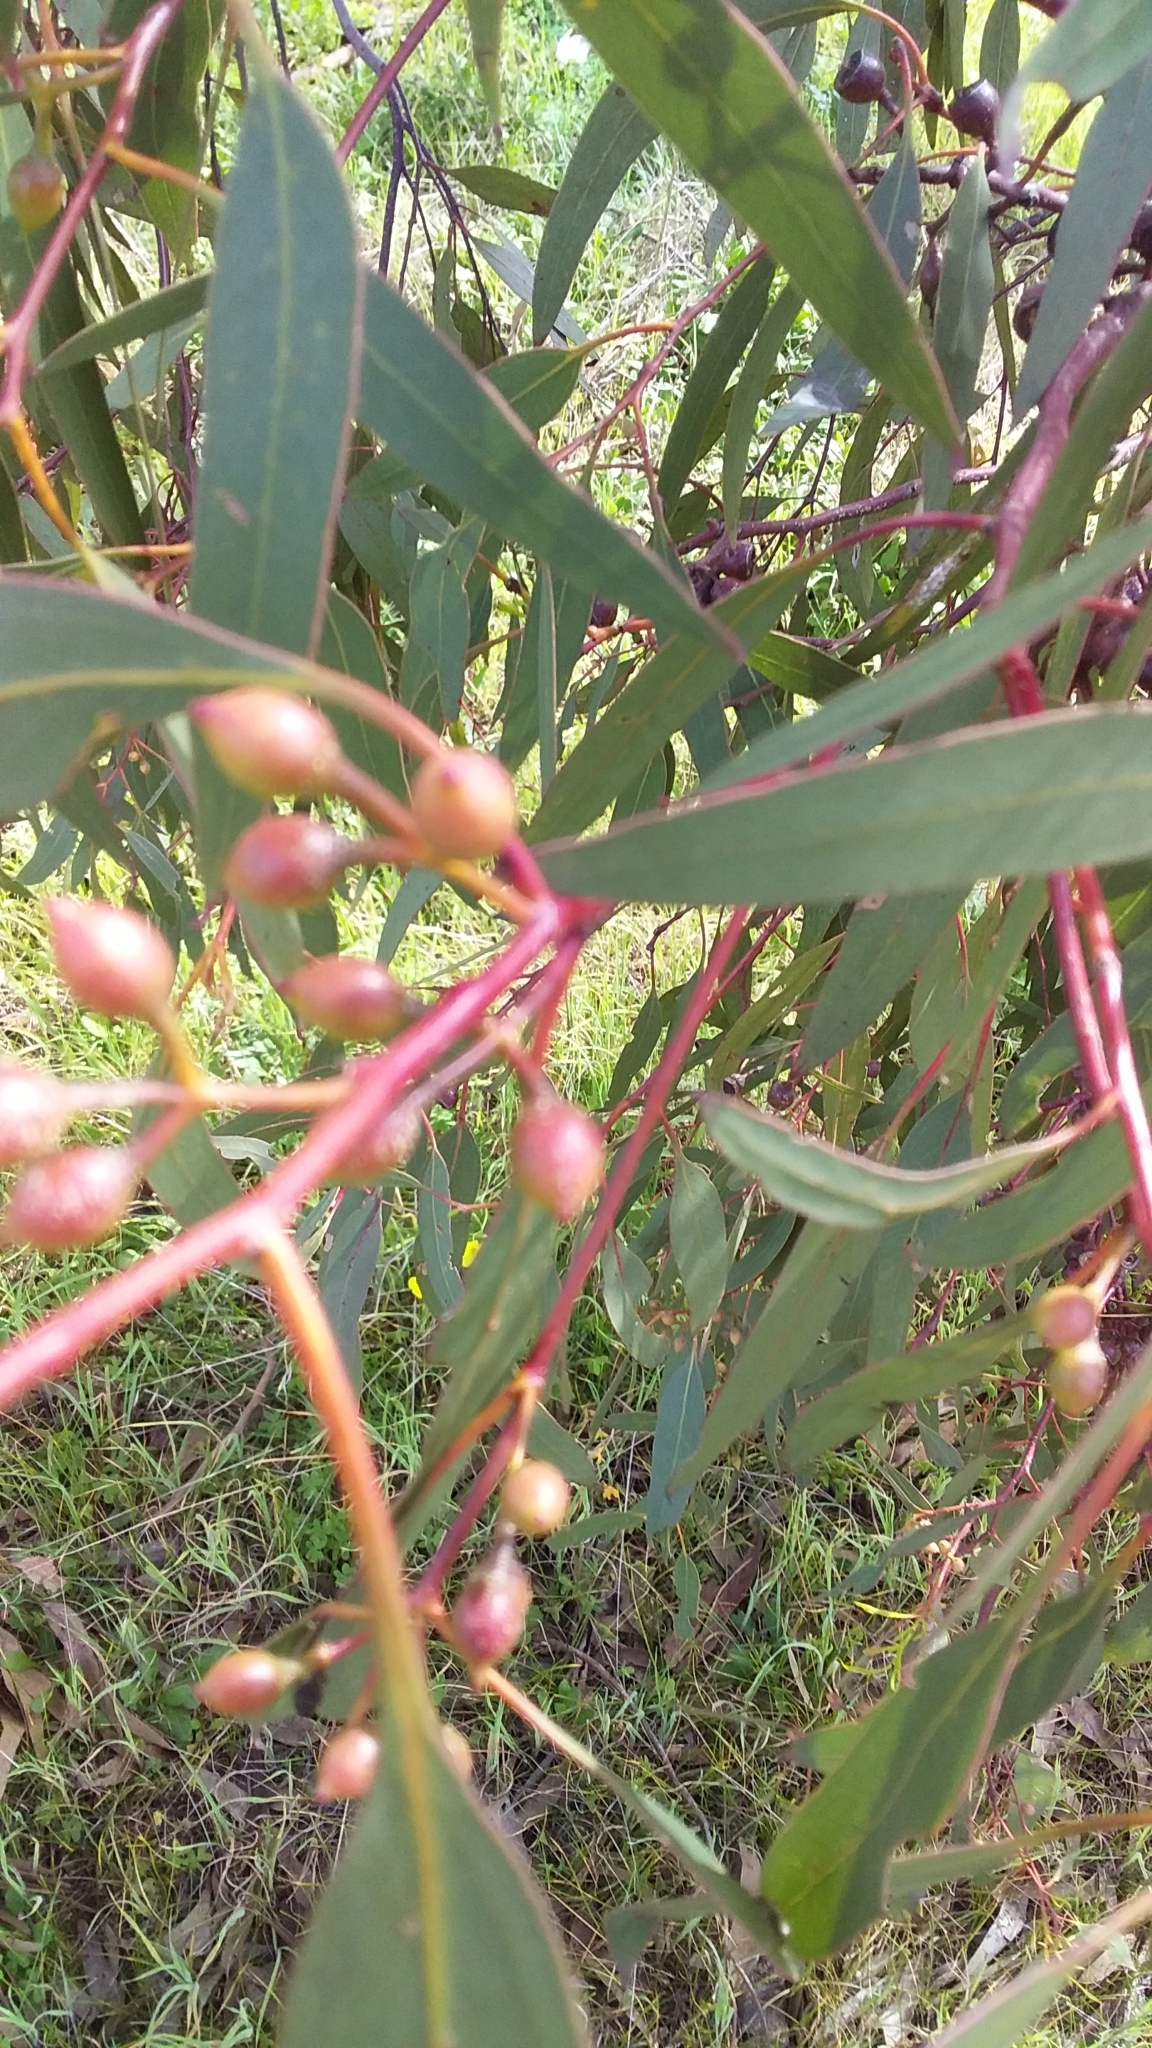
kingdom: Plantae
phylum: Tracheophyta
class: Magnoliopsida
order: Myrtales
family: Myrtaceae
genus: Eucalyptus
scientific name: Eucalyptus leucoxylon
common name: Blue gum
